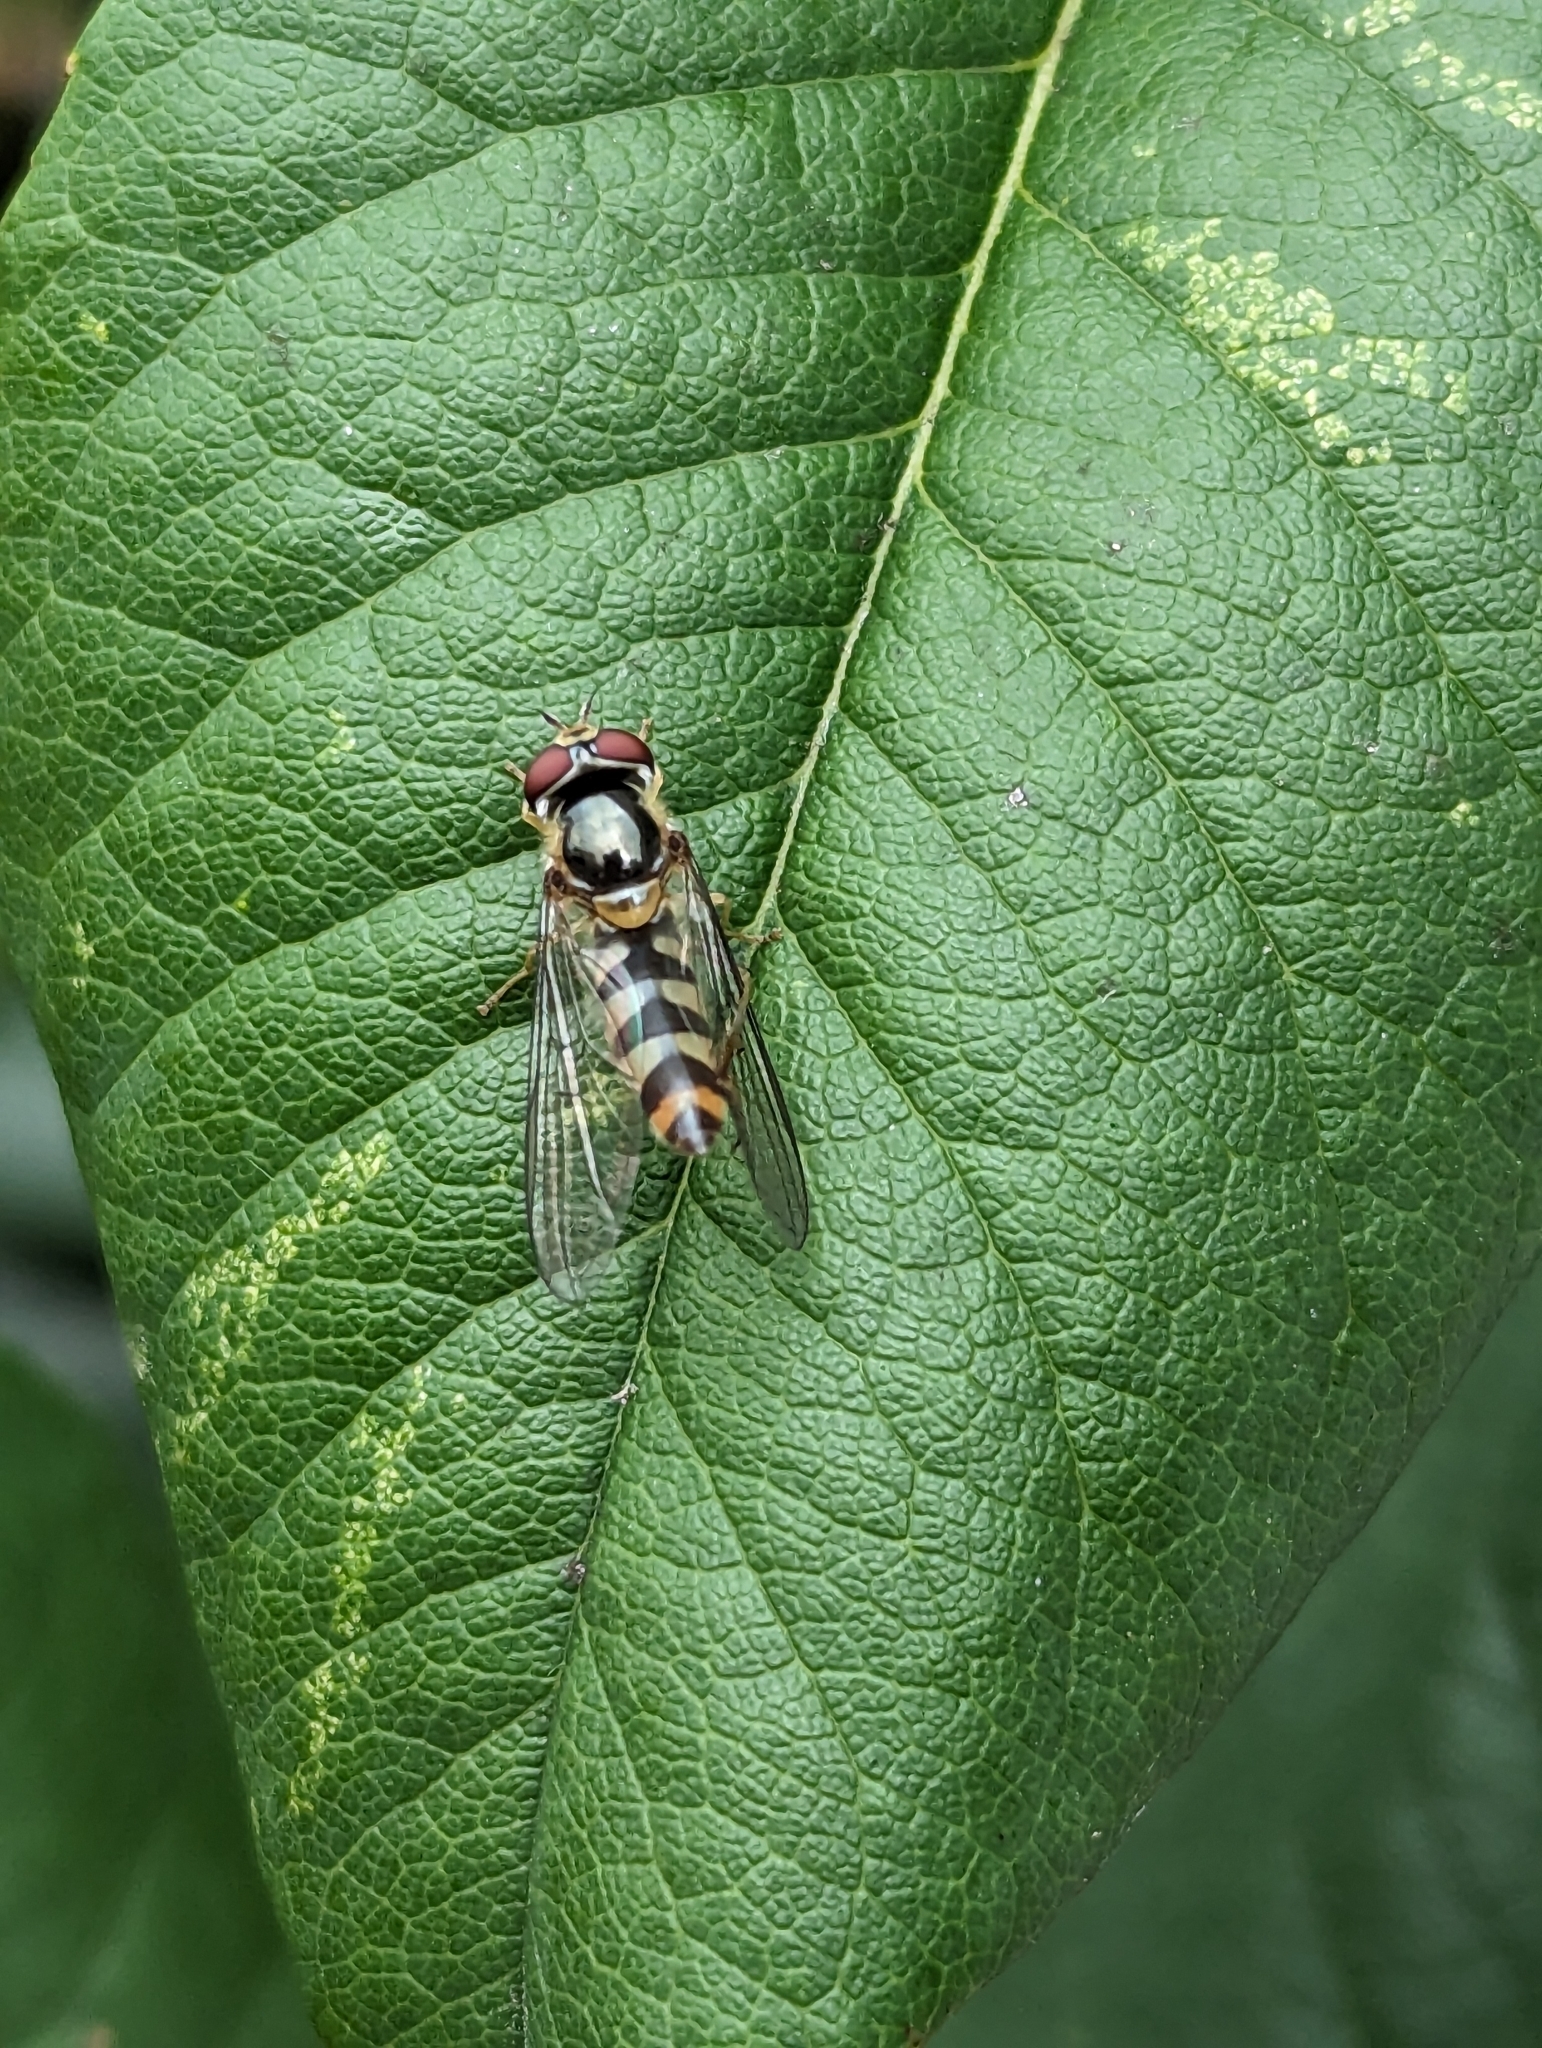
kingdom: Animalia
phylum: Arthropoda
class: Insecta
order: Diptera
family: Syrphidae
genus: Meliscaeva
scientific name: Meliscaeva auricollis
